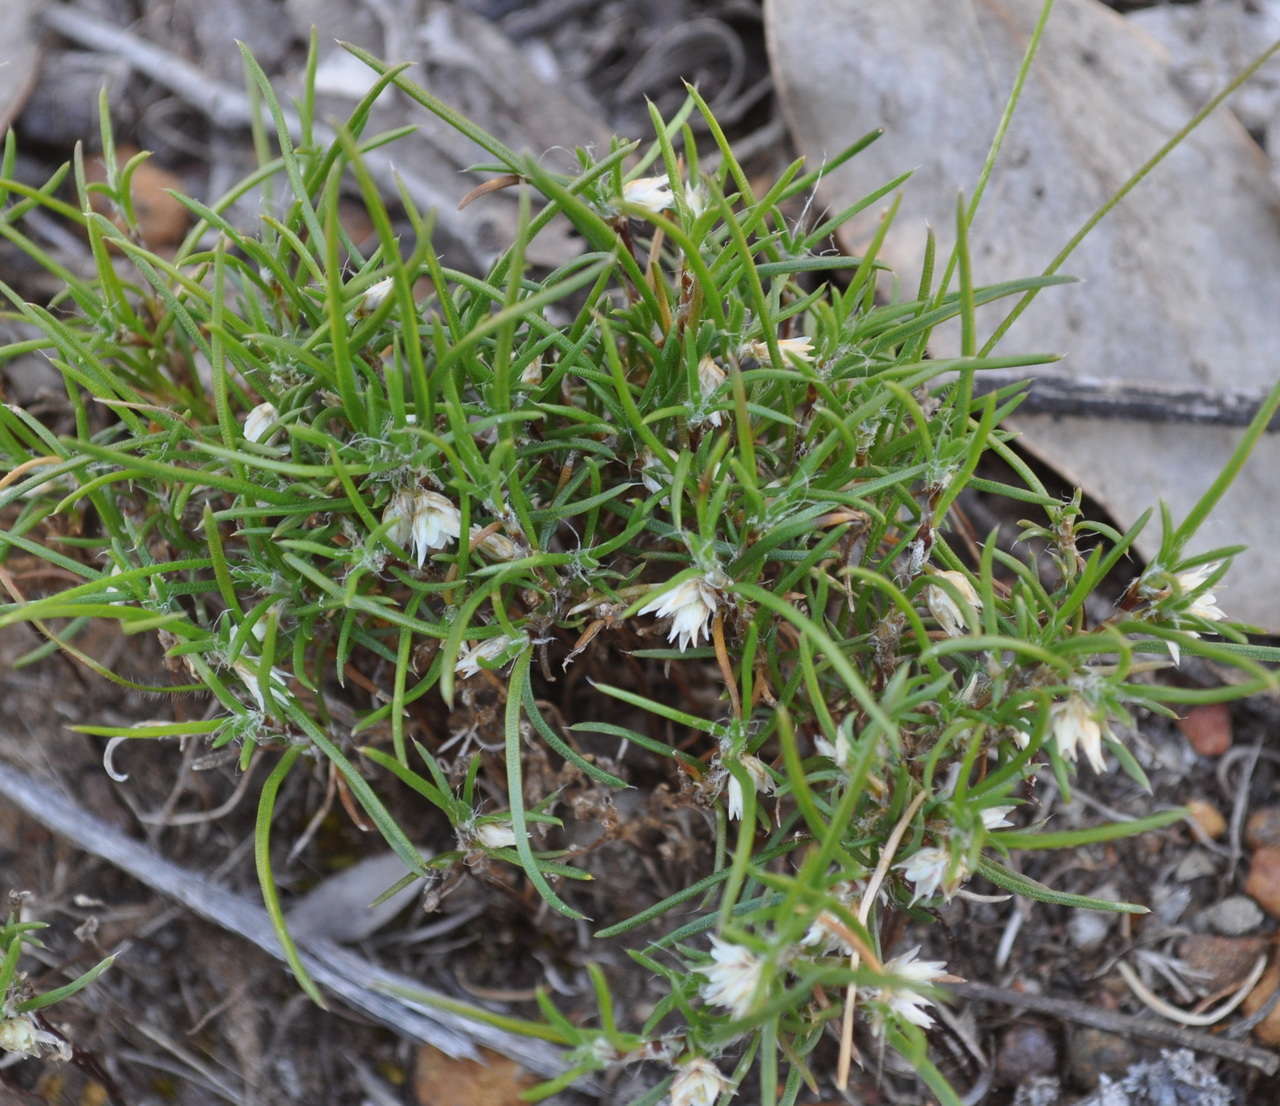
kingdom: Plantae
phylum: Tracheophyta
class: Liliopsida
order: Asparagales
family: Asparagaceae
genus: Laxmannia
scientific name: Laxmannia orientalis
